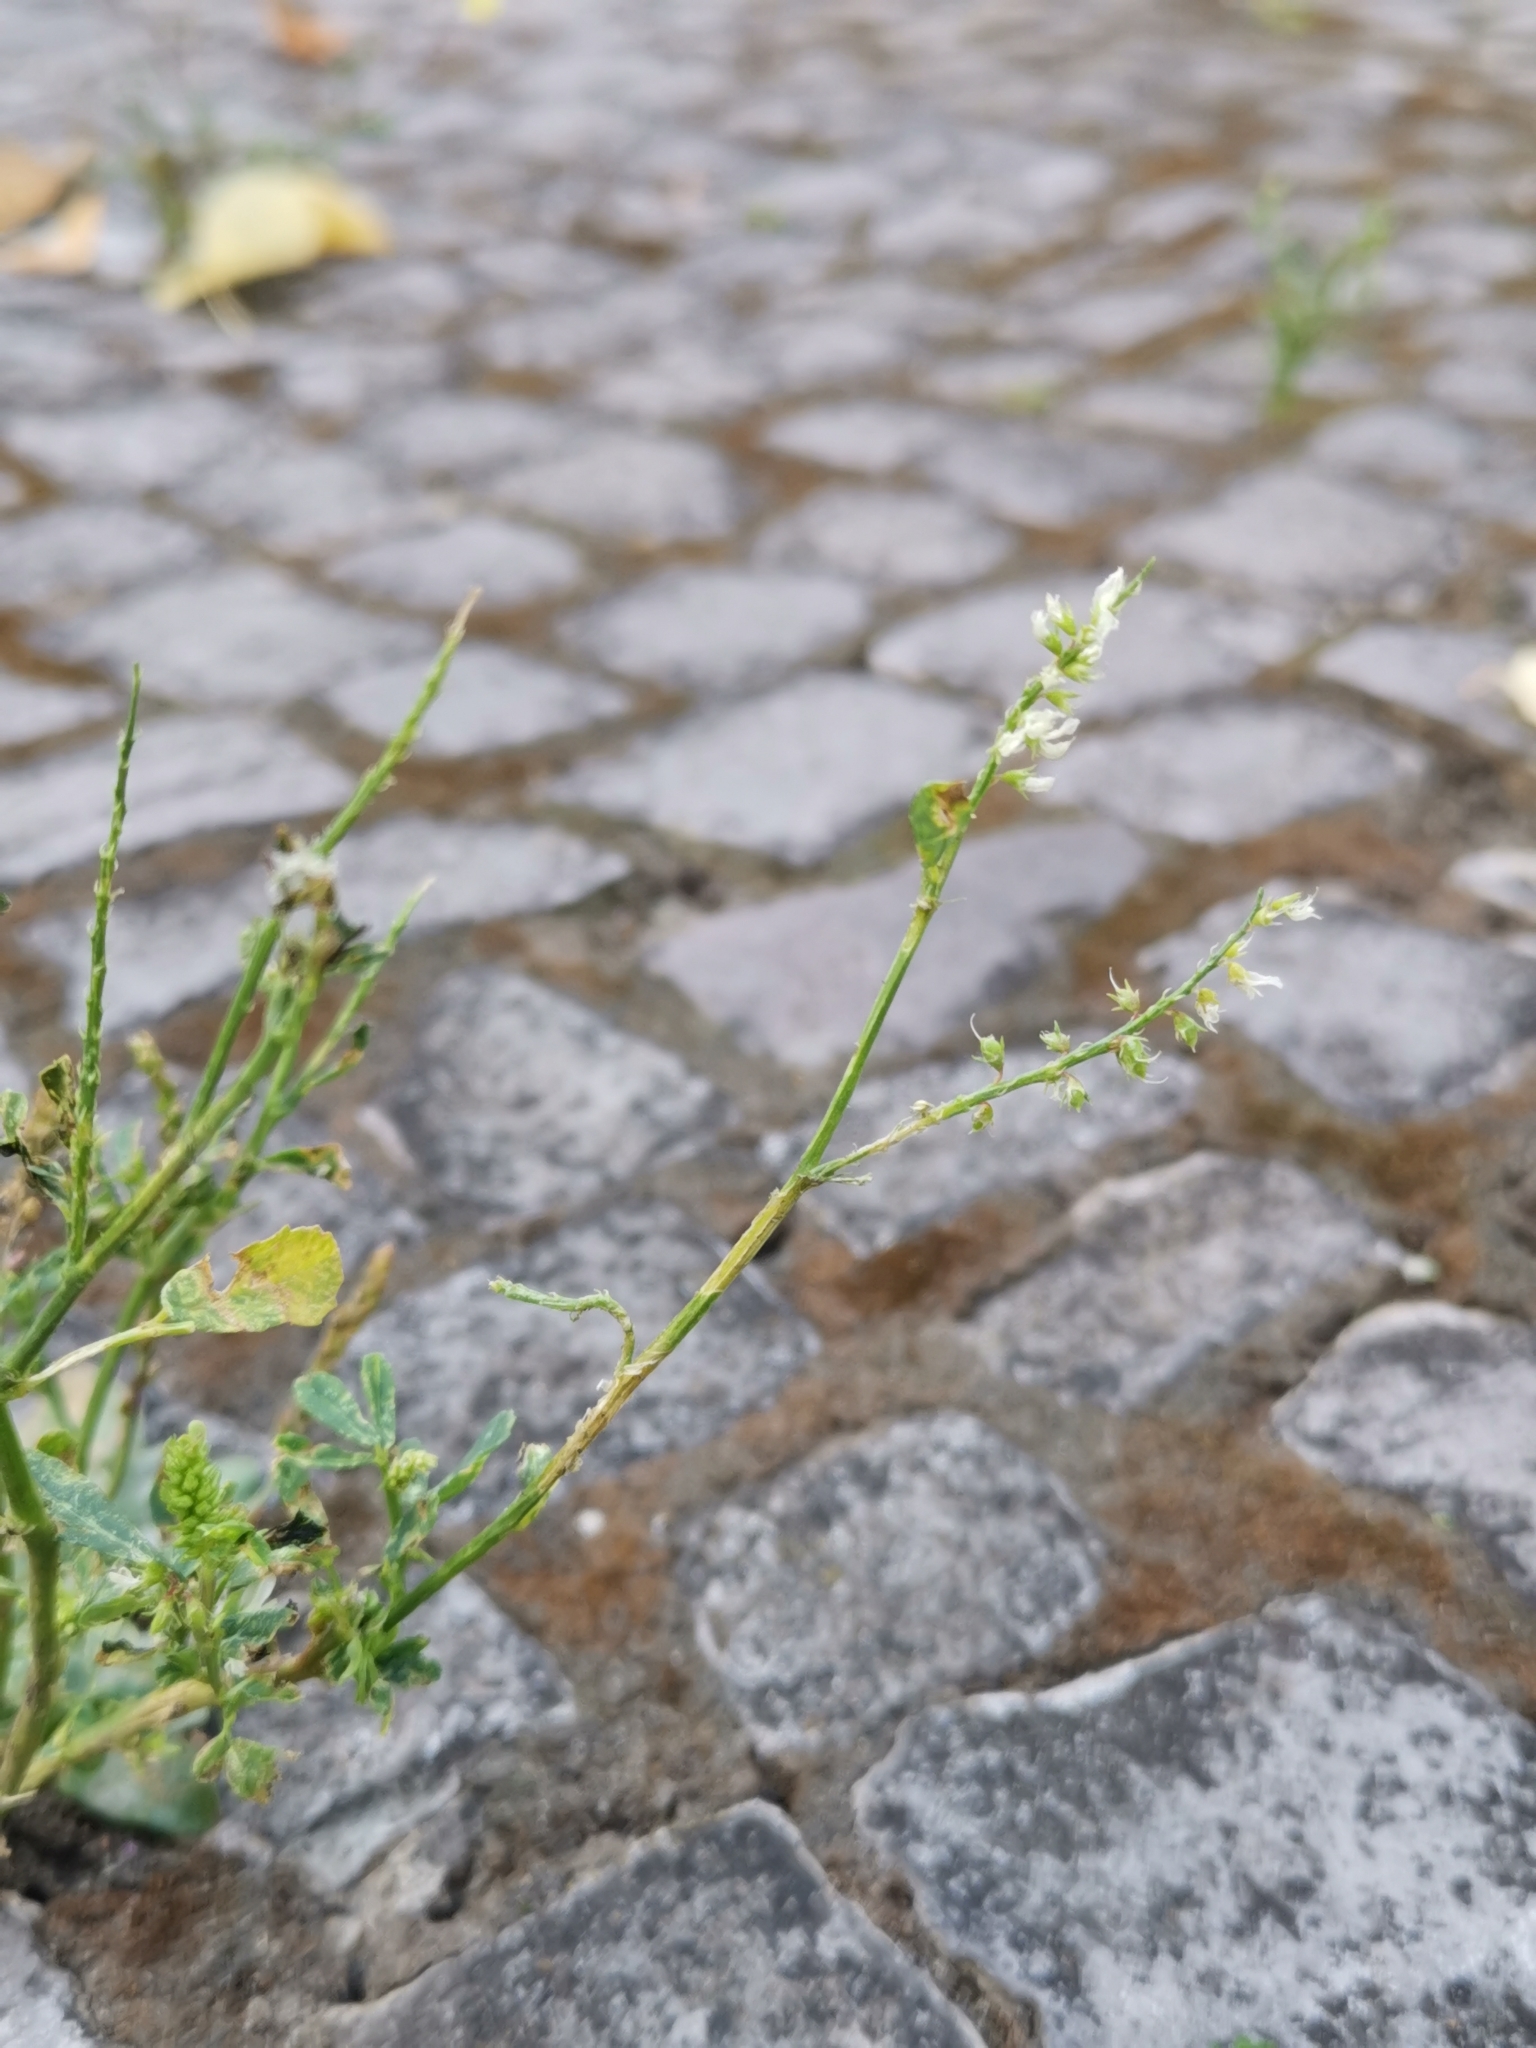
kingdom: Plantae
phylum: Tracheophyta
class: Magnoliopsida
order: Fabales
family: Fabaceae
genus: Melilotus
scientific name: Melilotus albus
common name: White melilot
